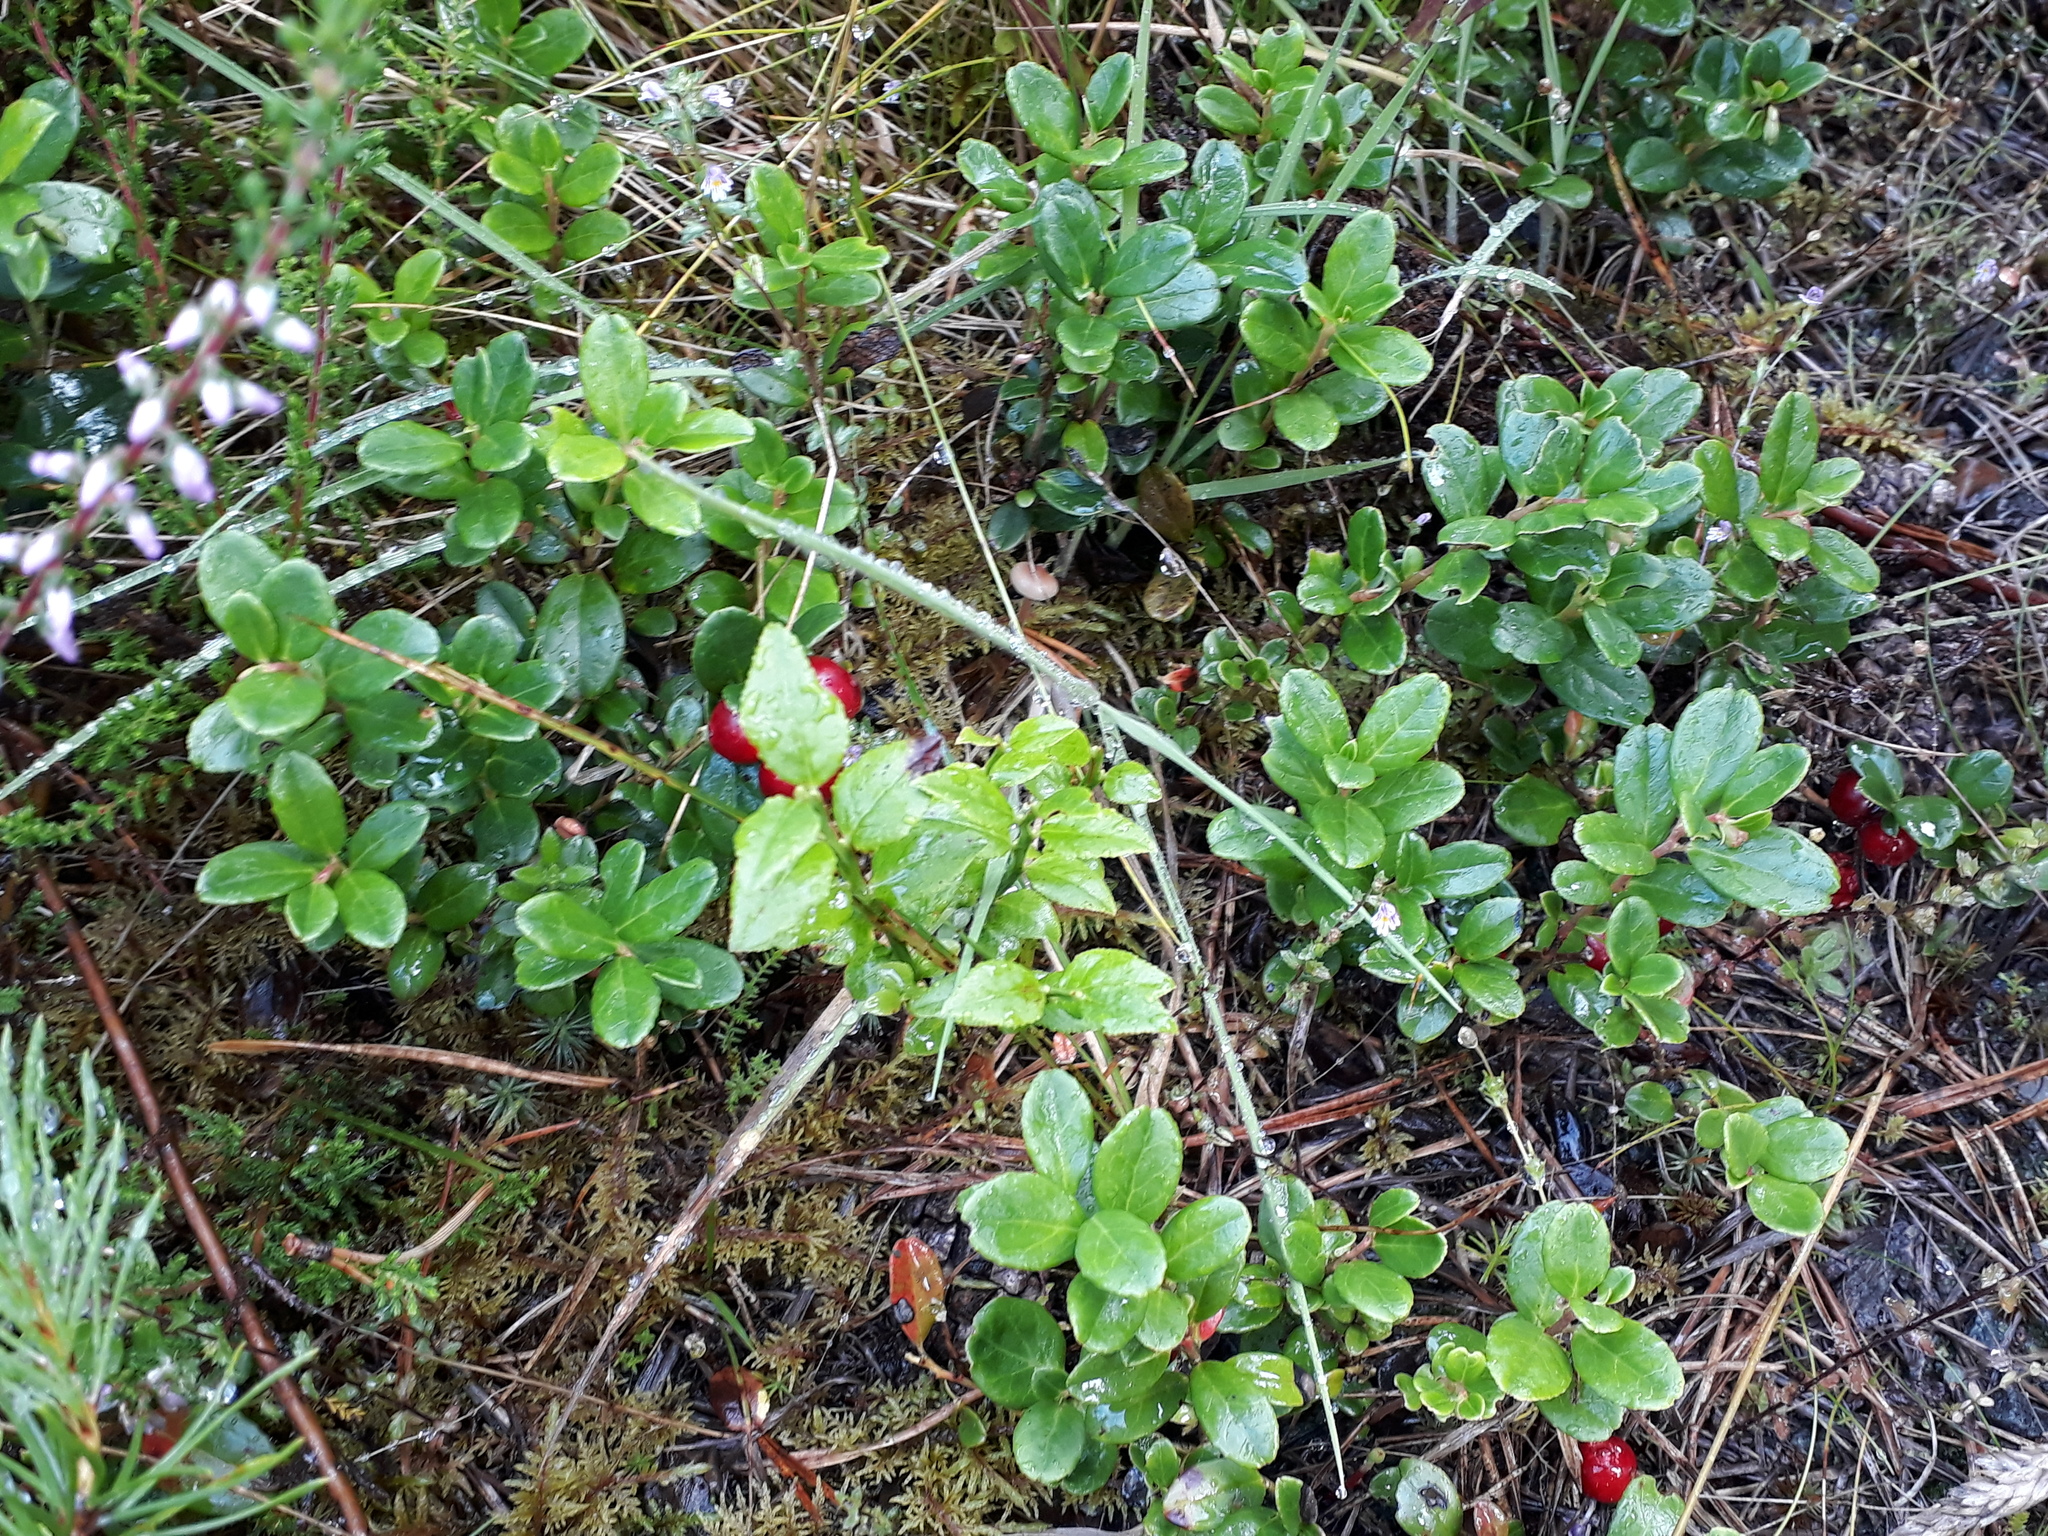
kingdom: Plantae
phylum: Tracheophyta
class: Magnoliopsida
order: Ericales
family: Ericaceae
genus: Vaccinium
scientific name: Vaccinium vitis-idaea
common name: Cowberry
